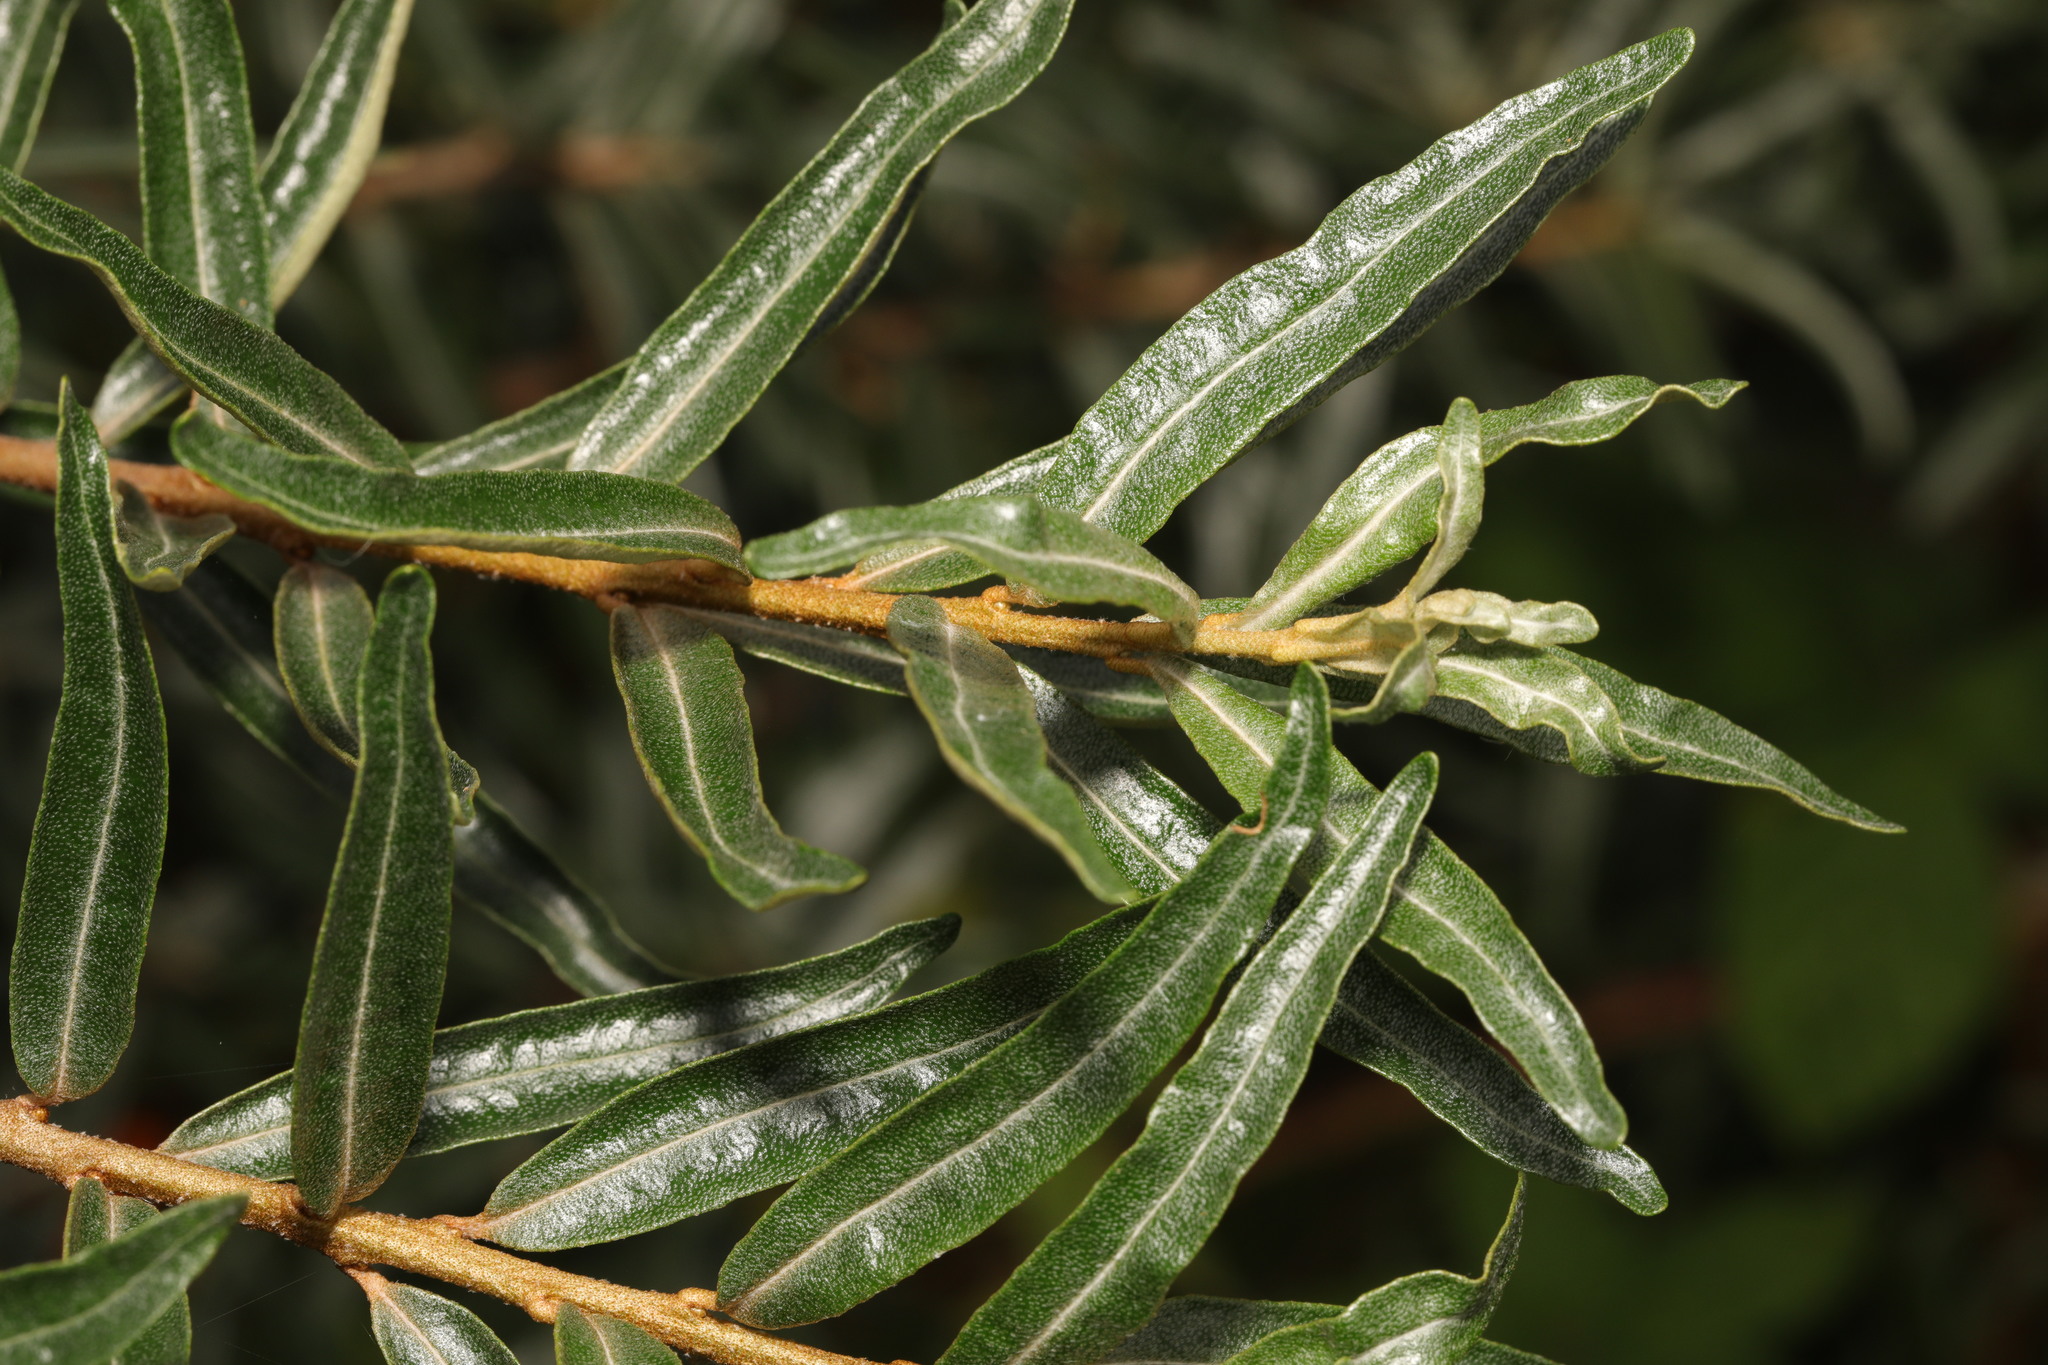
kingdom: Plantae
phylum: Tracheophyta
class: Magnoliopsida
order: Rosales
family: Elaeagnaceae
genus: Hippophae
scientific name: Hippophae rhamnoides
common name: Sea-buckthorn
